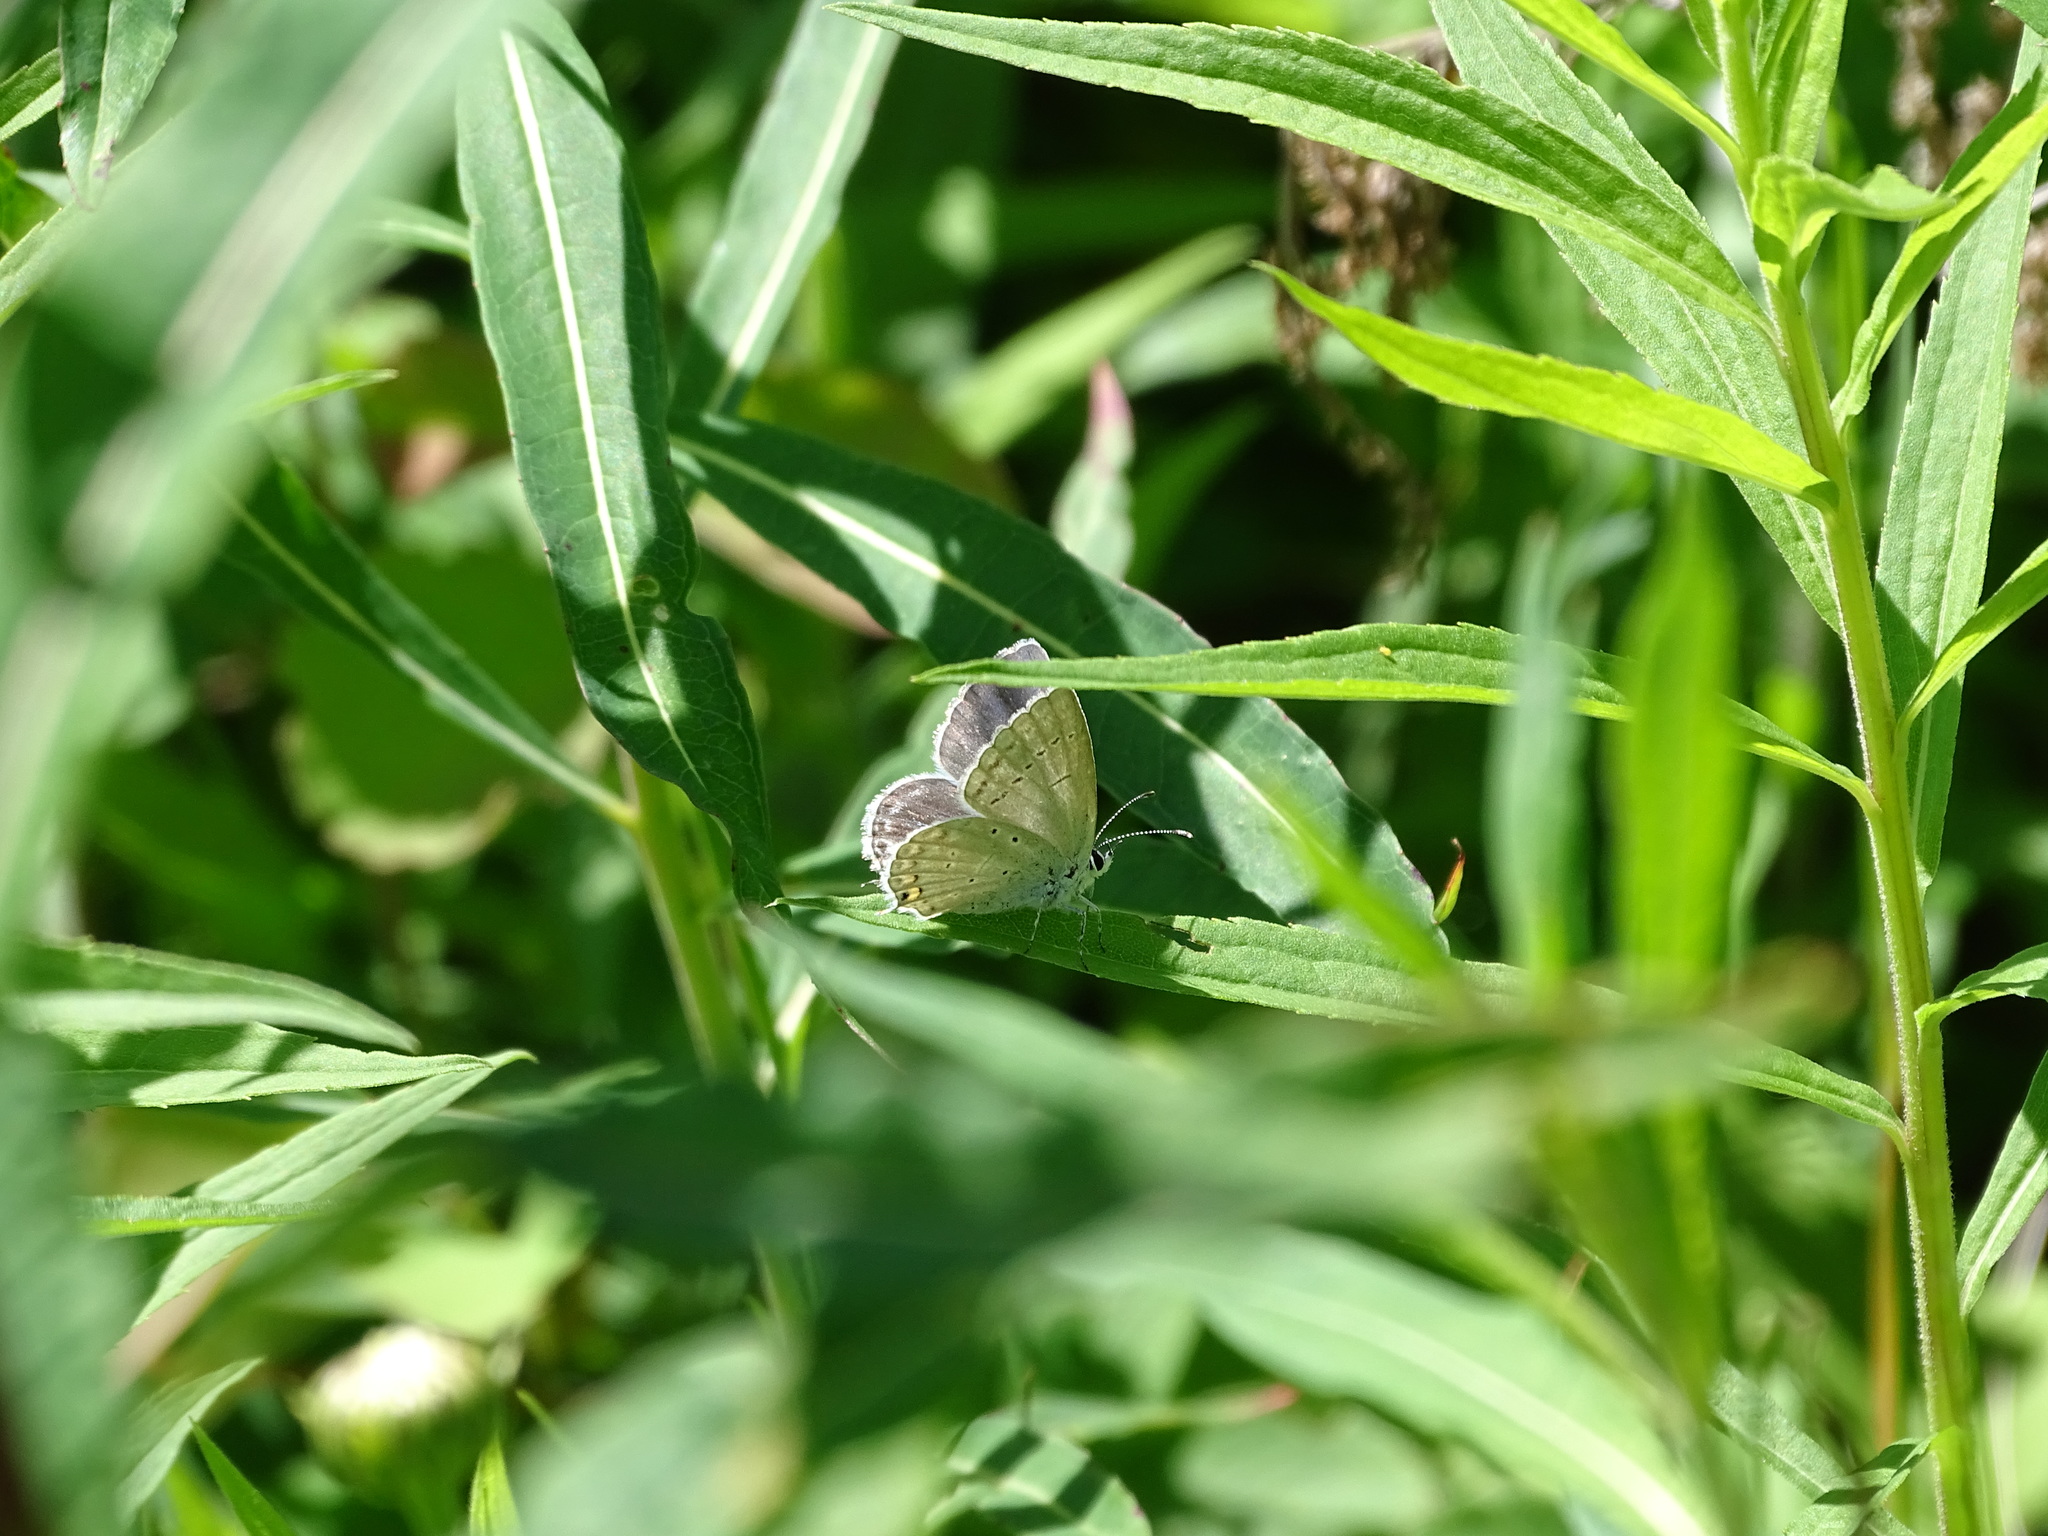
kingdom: Animalia
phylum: Arthropoda
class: Insecta
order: Lepidoptera
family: Lycaenidae
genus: Elkalyce
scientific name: Elkalyce amyntula
